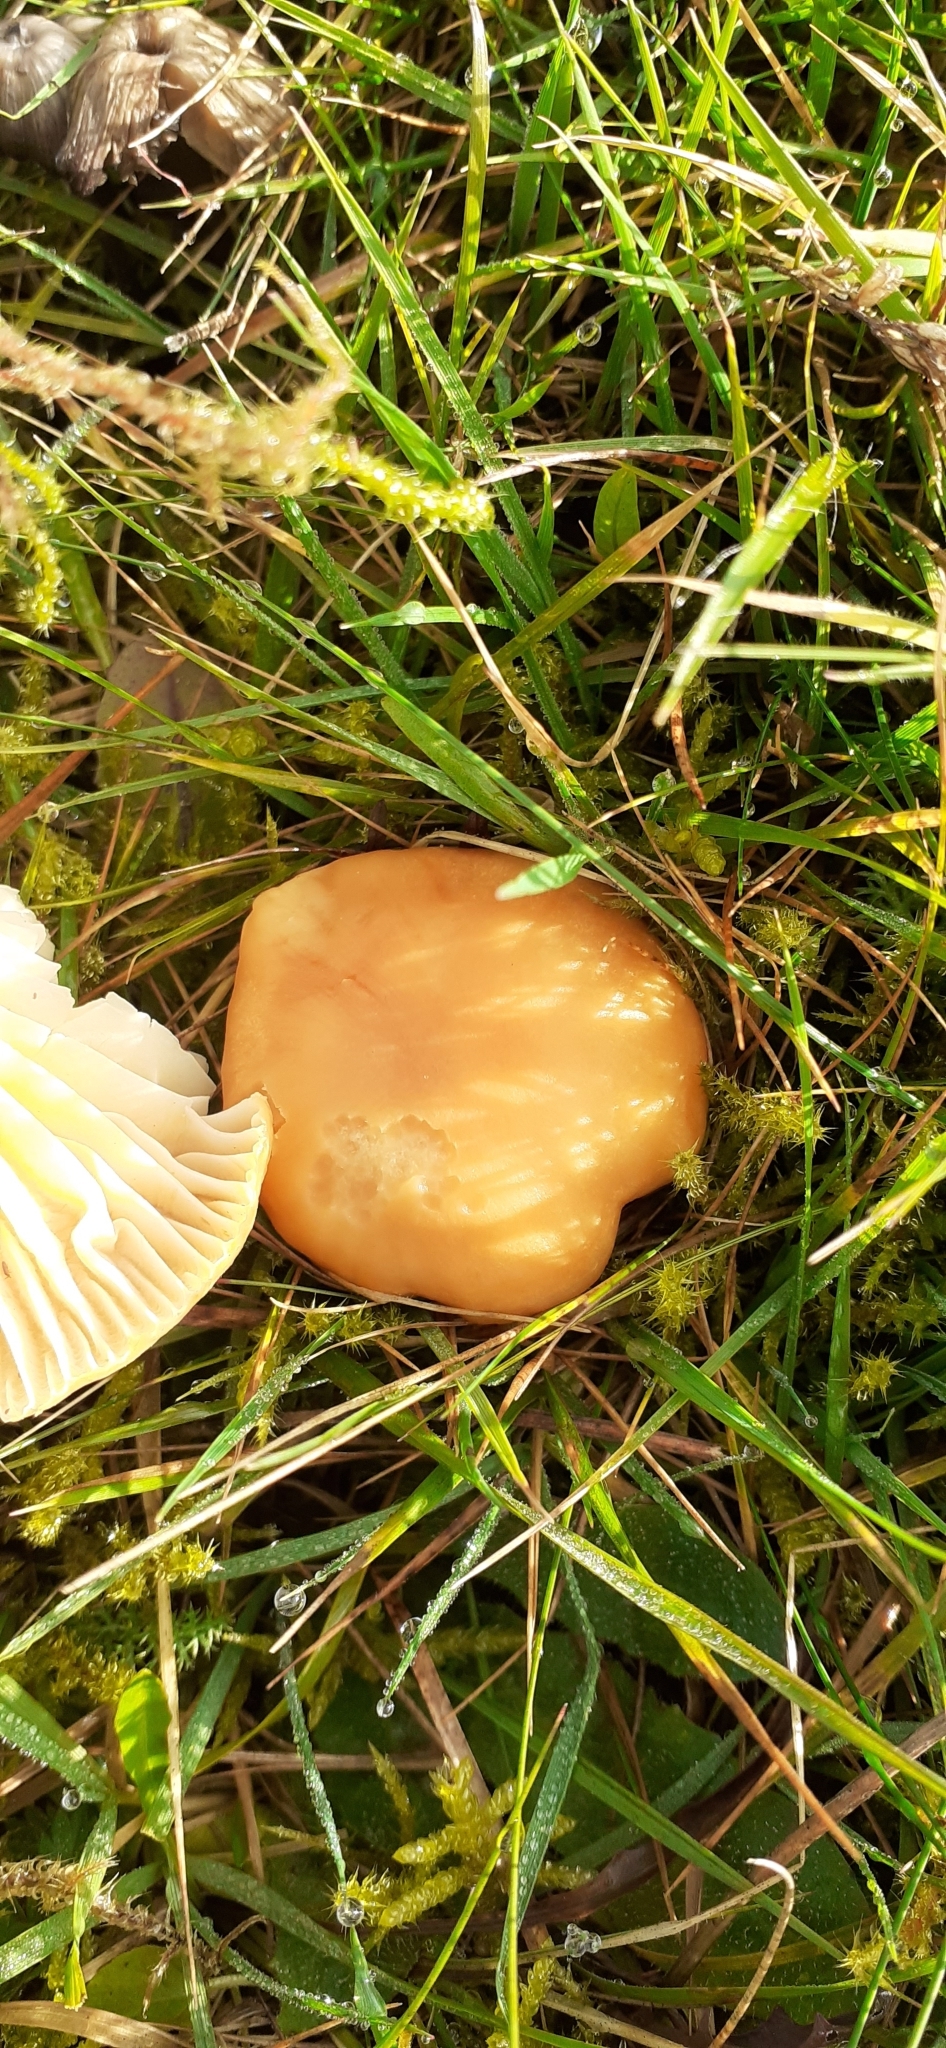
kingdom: Fungi
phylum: Basidiomycota
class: Agaricomycetes
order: Agaricales
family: Hygrophoraceae
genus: Cuphophyllus
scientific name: Cuphophyllus pratensis
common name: Meadow waxcap
